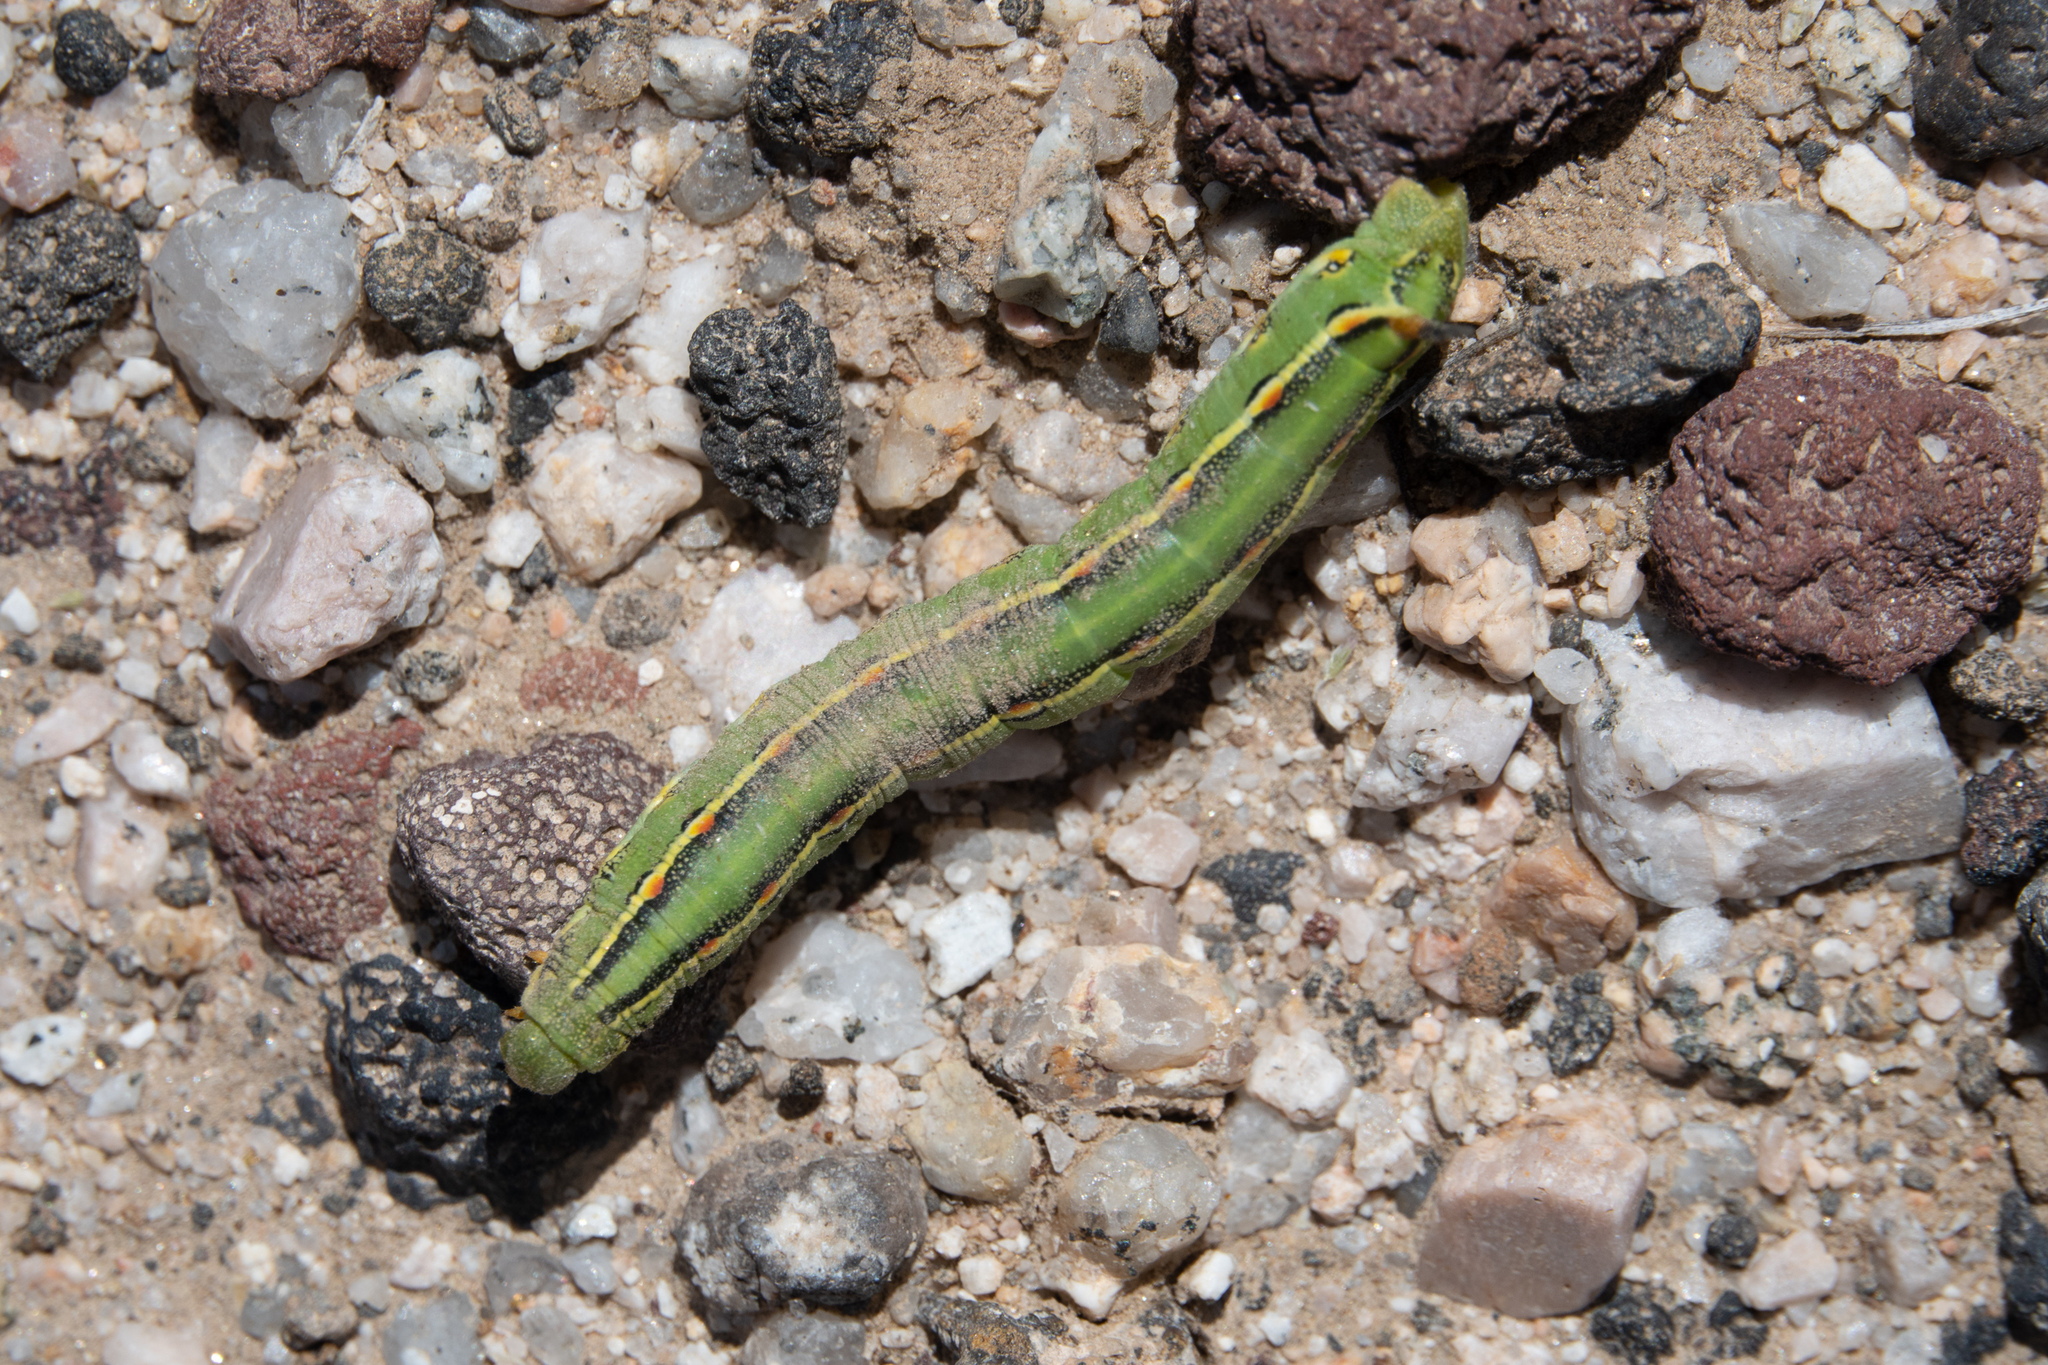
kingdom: Animalia
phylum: Arthropoda
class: Insecta
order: Lepidoptera
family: Sphingidae
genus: Hyles
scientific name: Hyles lineata
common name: White-lined sphinx
